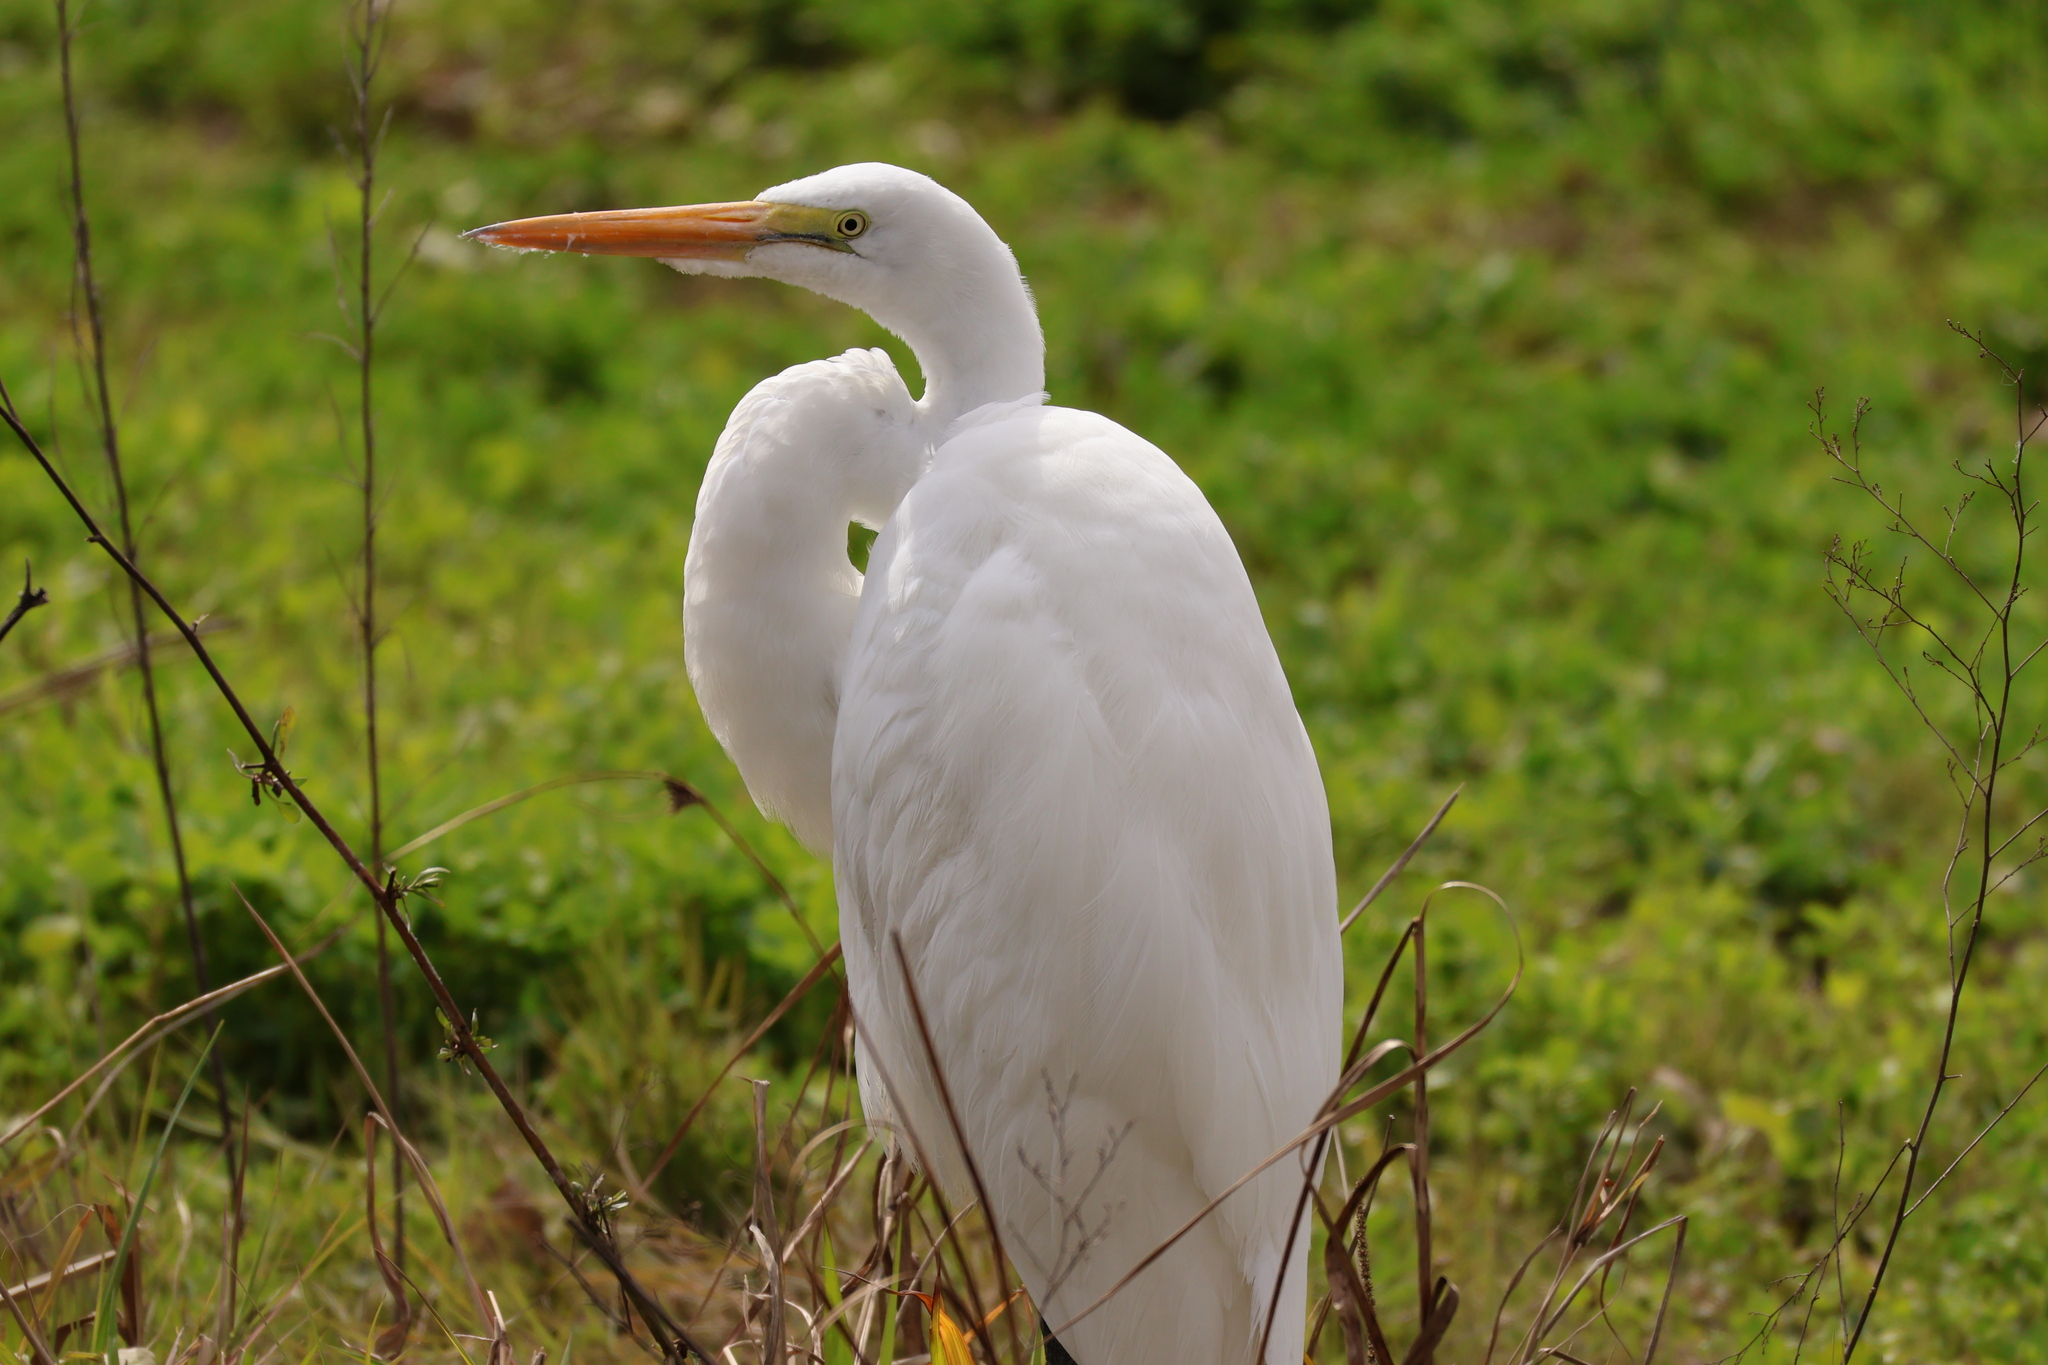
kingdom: Animalia
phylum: Chordata
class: Aves
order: Pelecaniformes
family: Ardeidae
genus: Ardea
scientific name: Ardea alba
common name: Great egret
